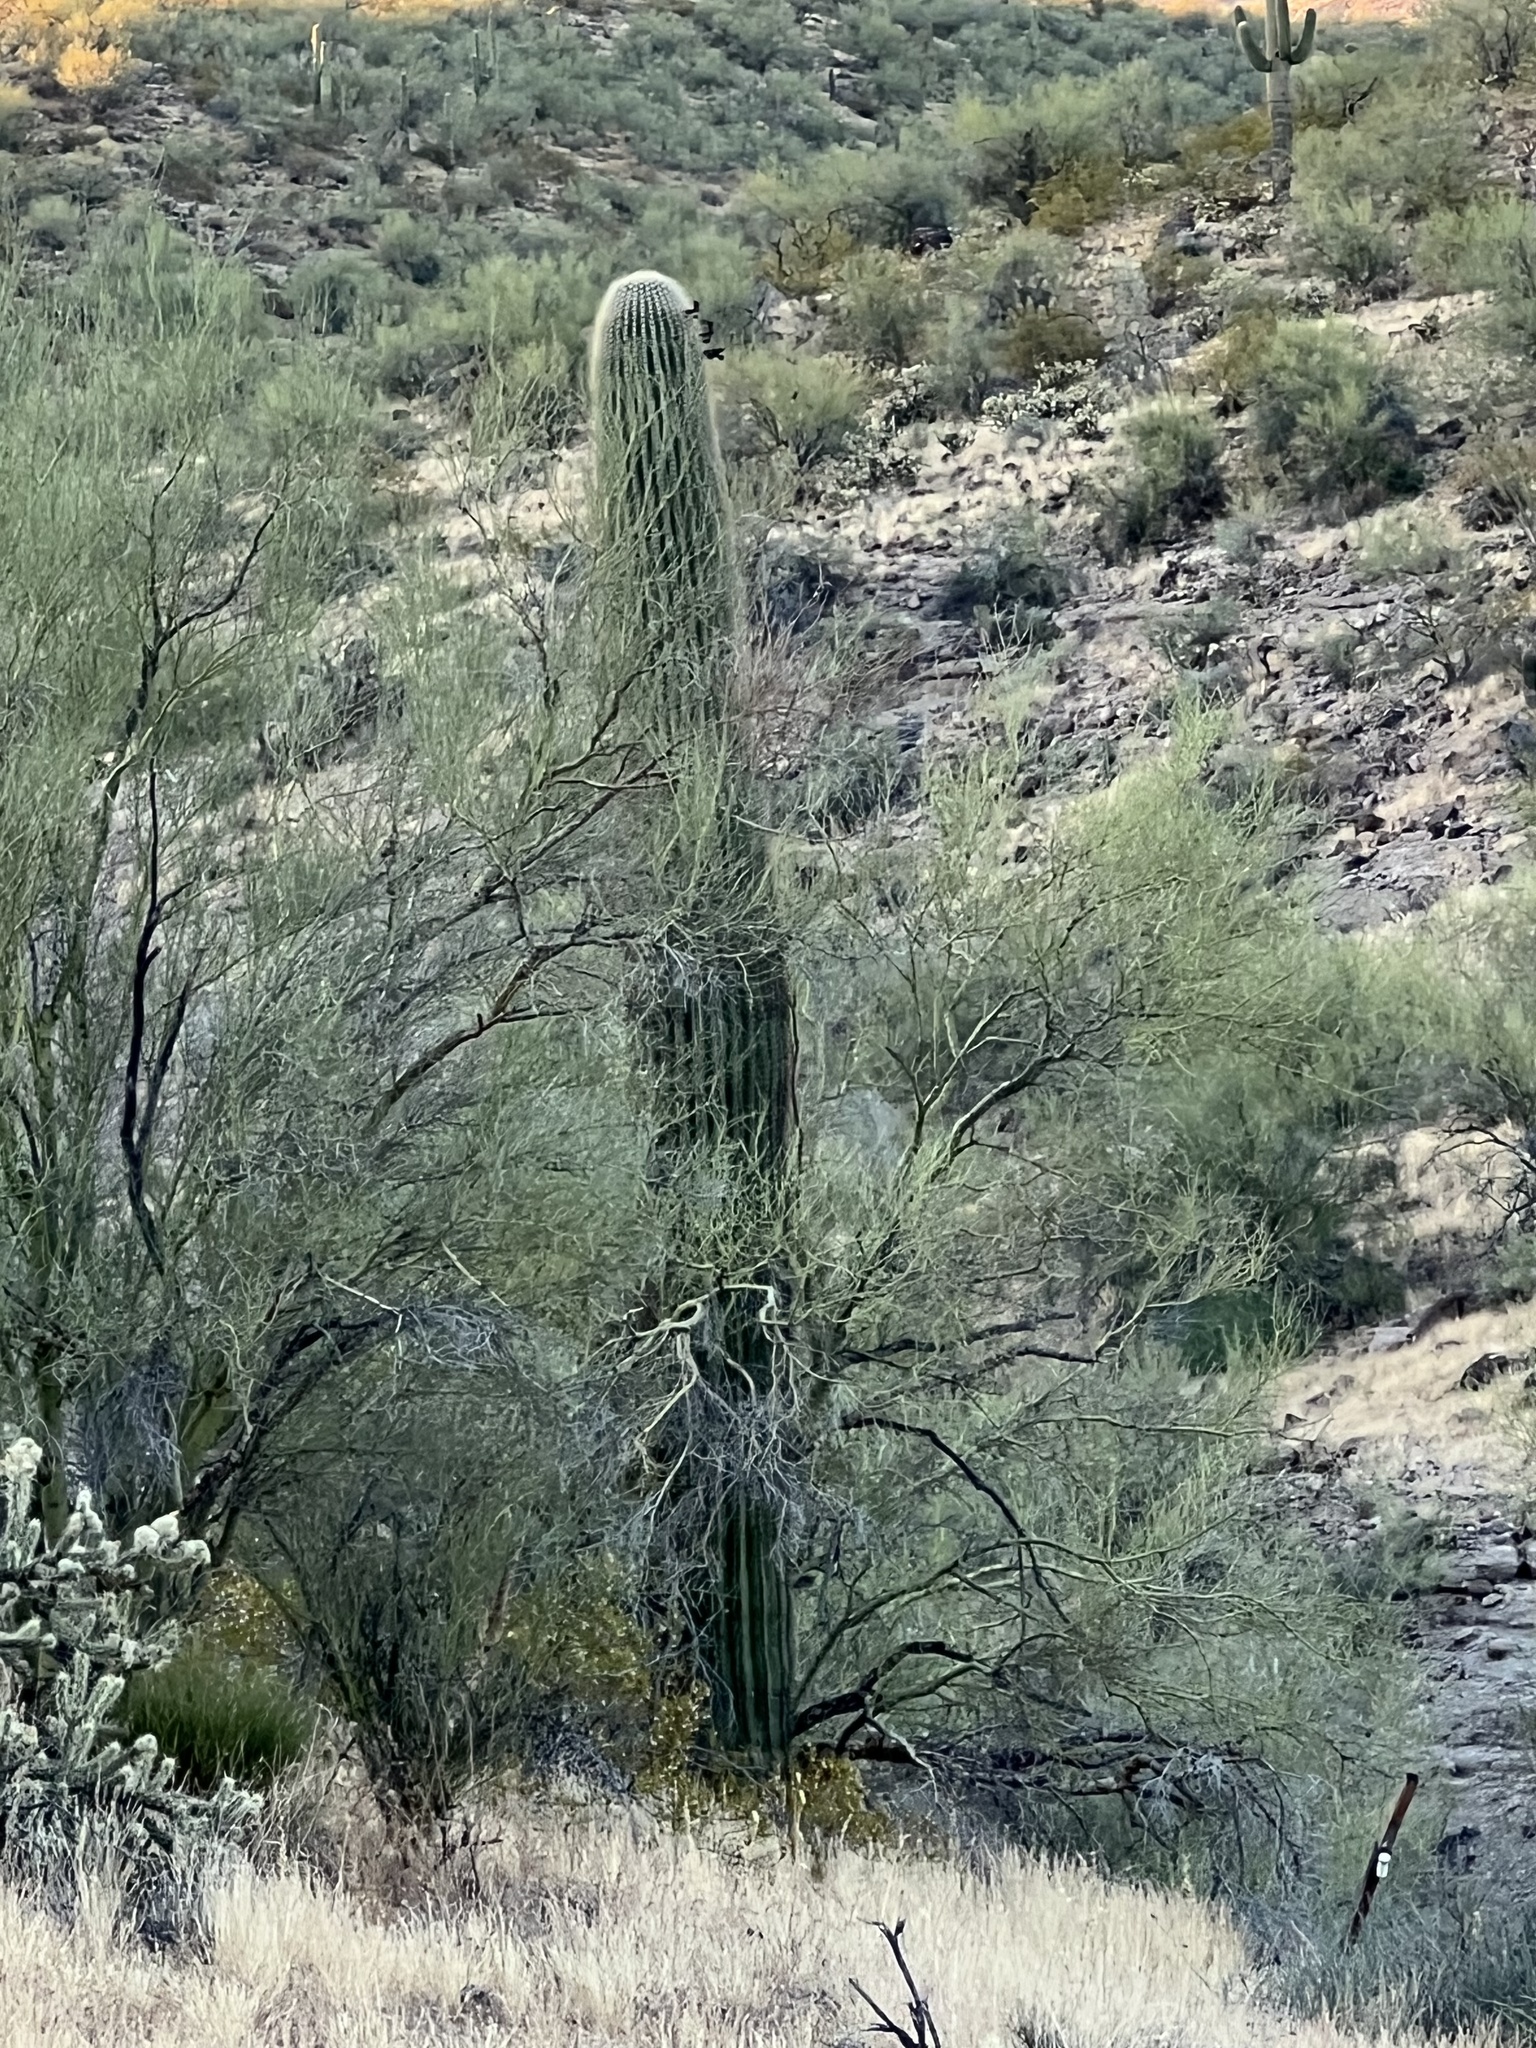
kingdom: Plantae
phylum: Tracheophyta
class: Magnoliopsida
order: Caryophyllales
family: Cactaceae
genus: Carnegiea
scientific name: Carnegiea gigantea
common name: Saguaro
